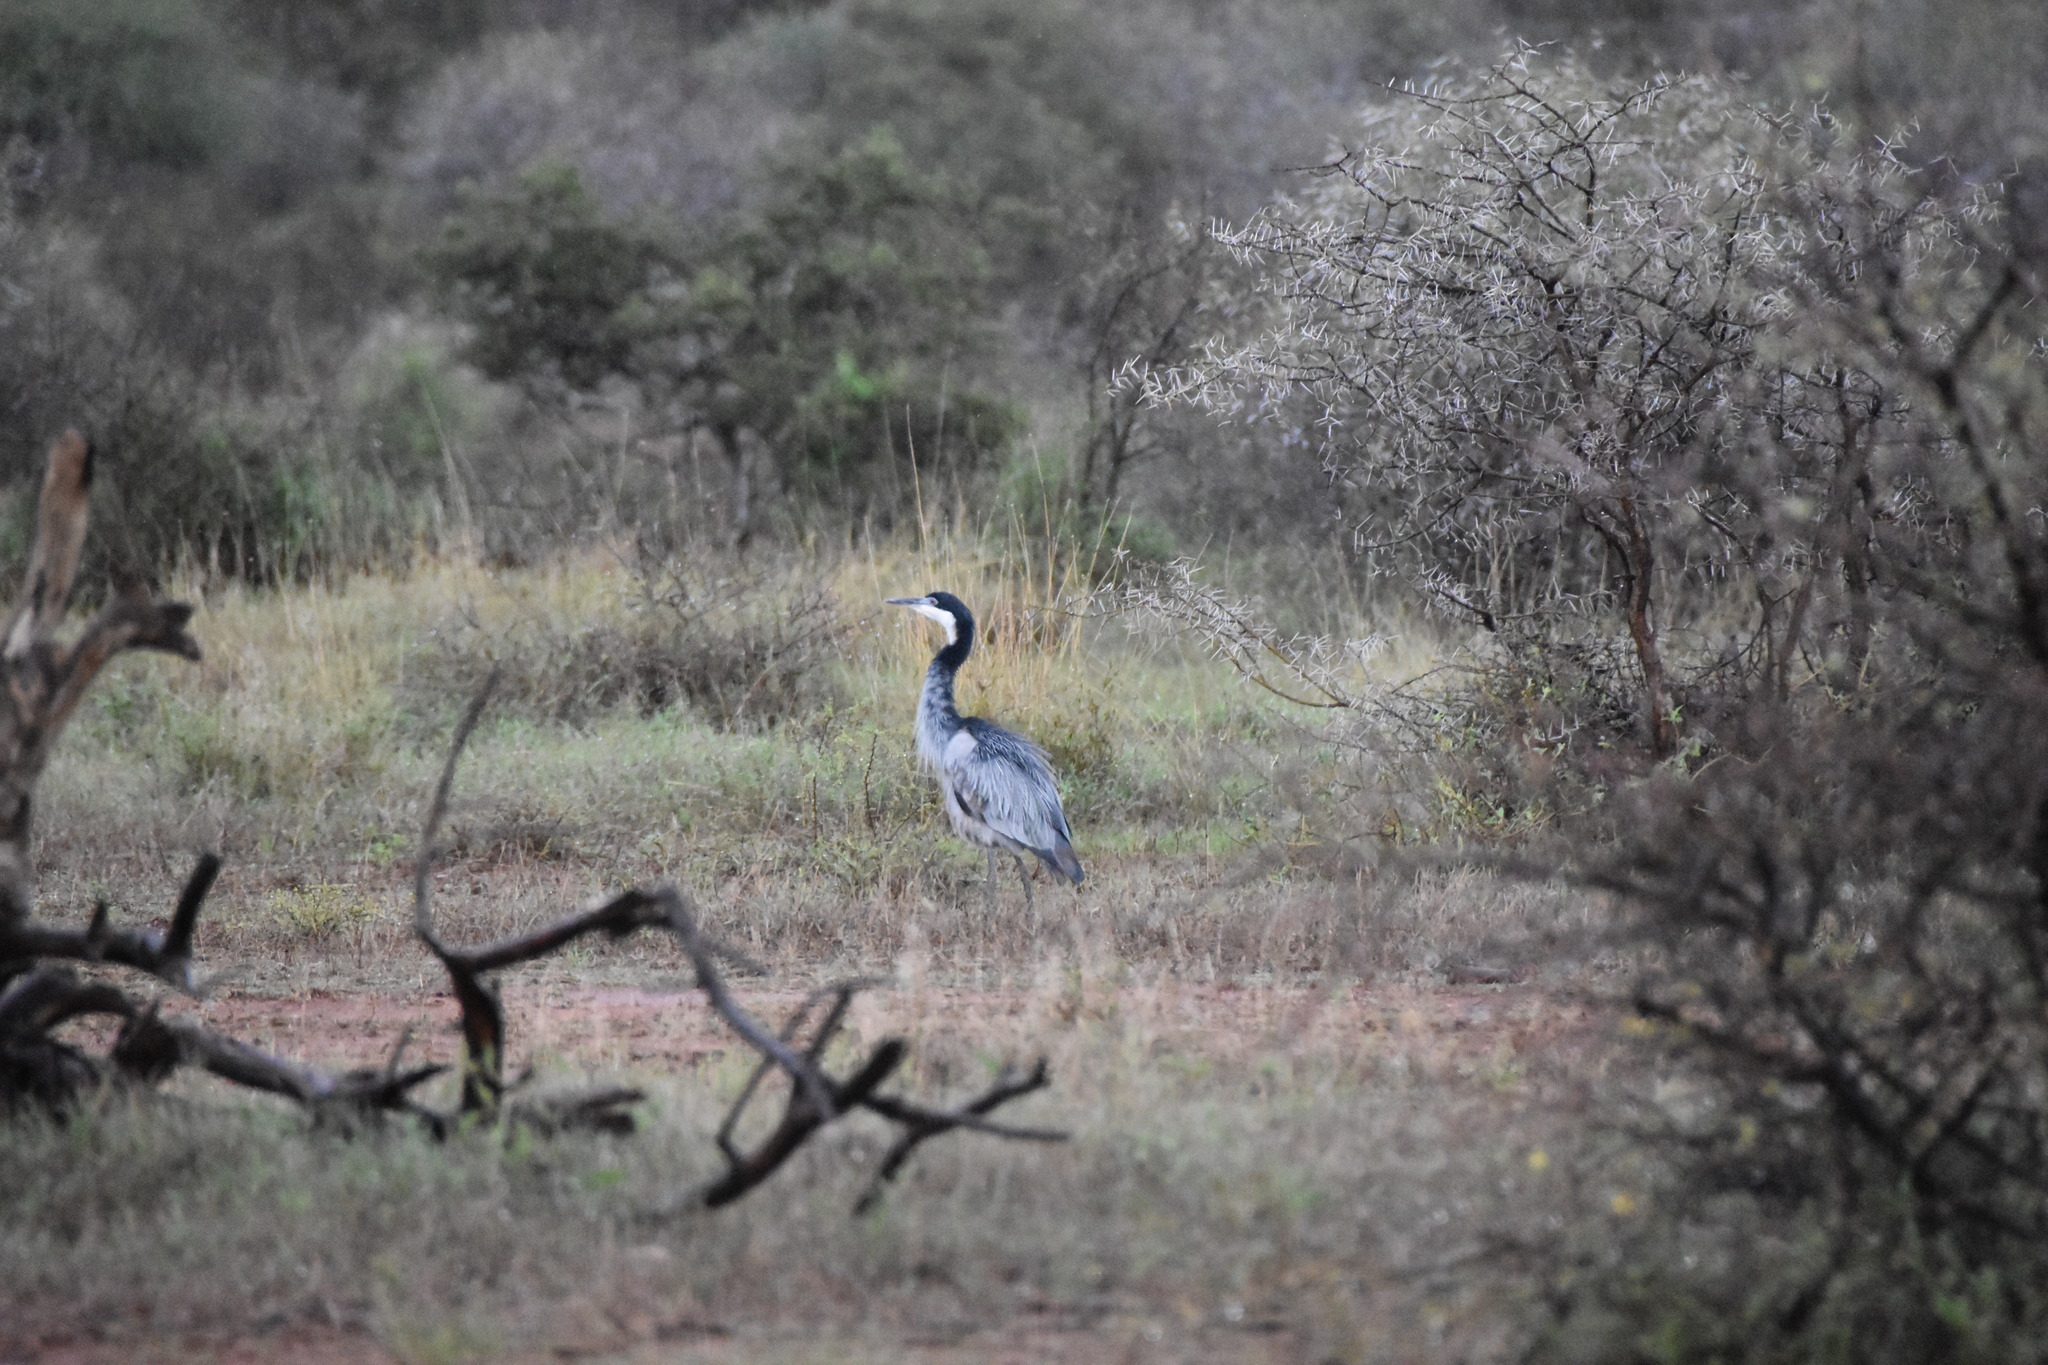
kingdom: Animalia
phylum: Chordata
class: Aves
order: Pelecaniformes
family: Ardeidae
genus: Ardea
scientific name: Ardea melanocephala
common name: Black-headed heron
